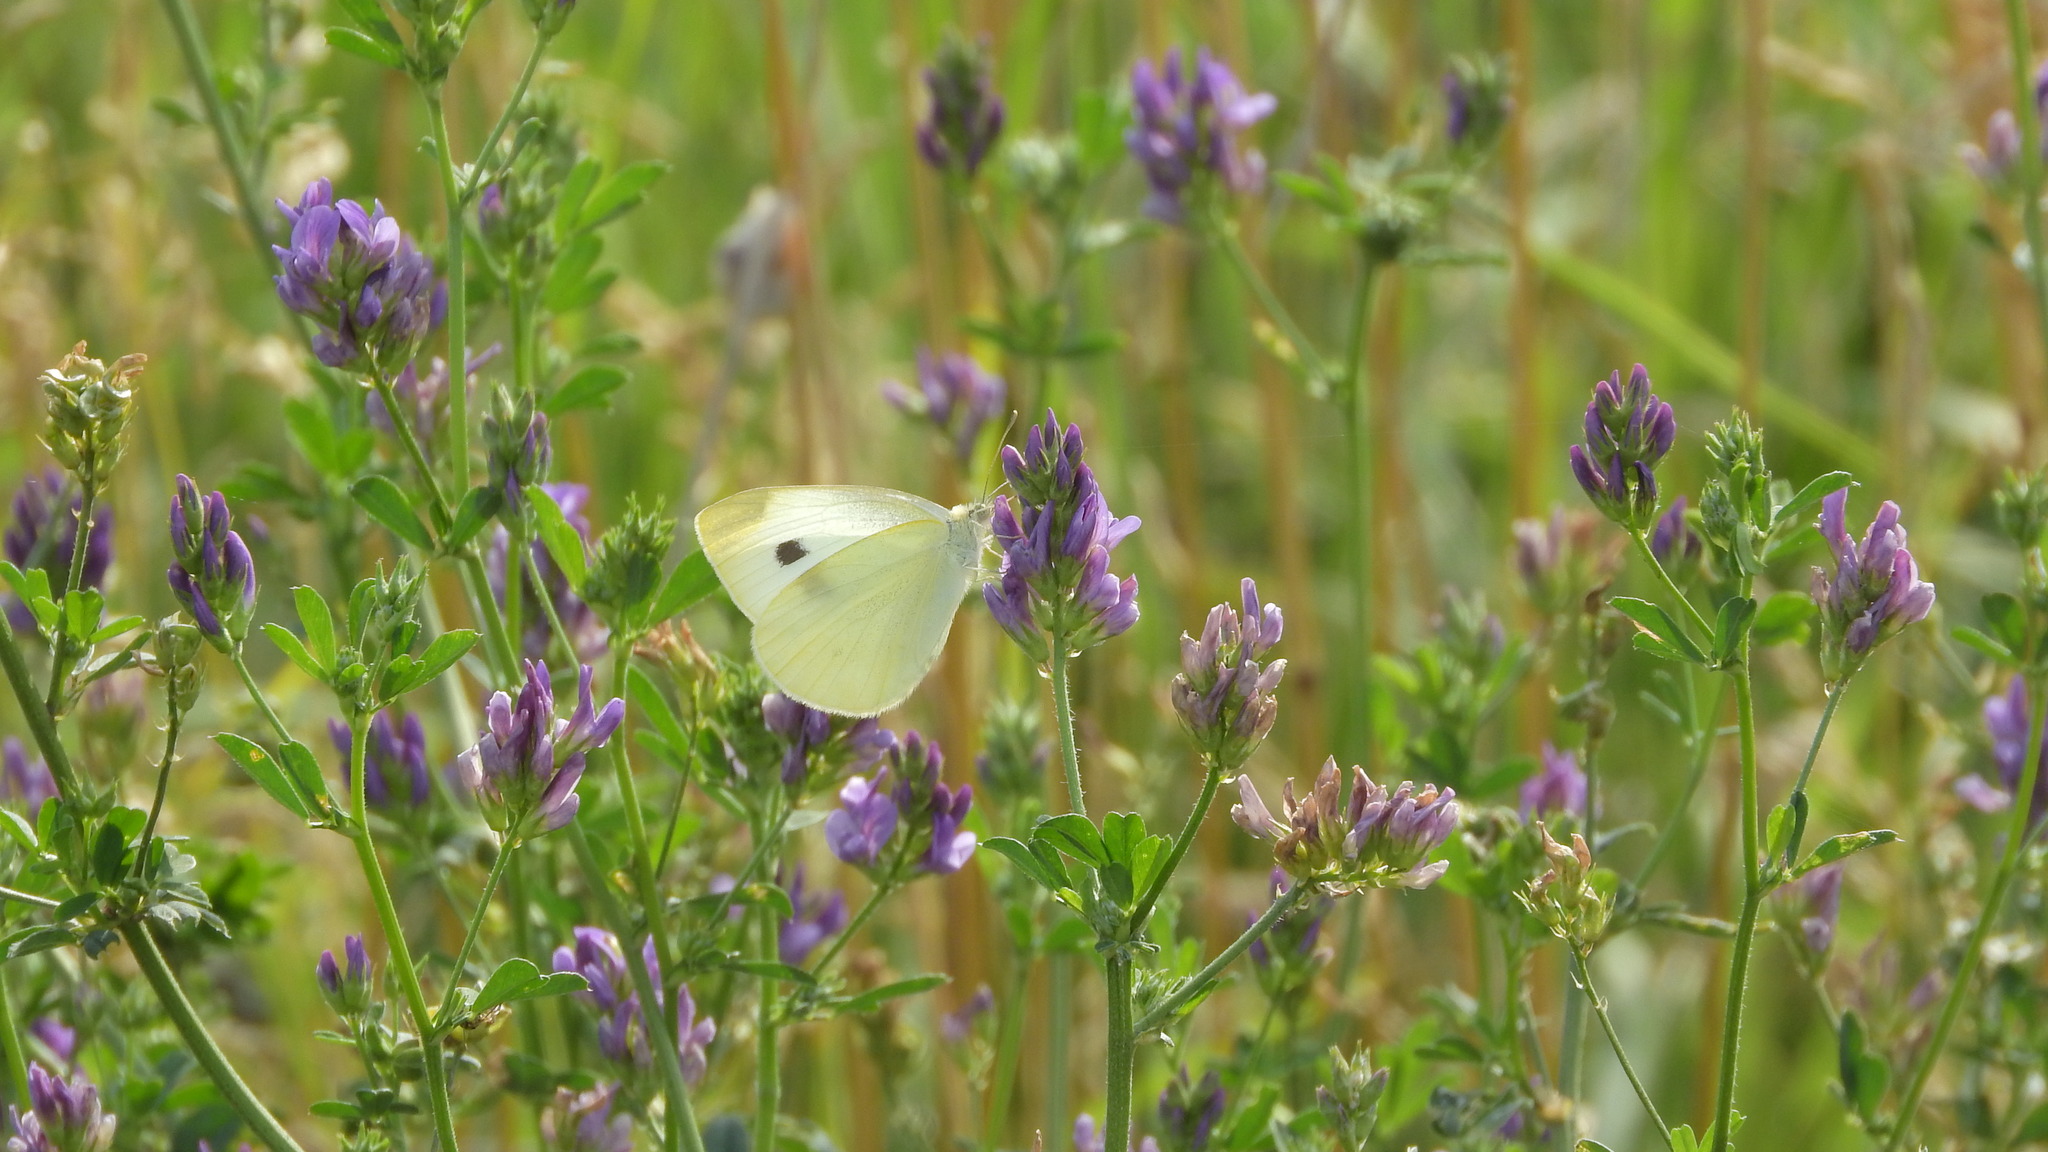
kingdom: Animalia
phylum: Arthropoda
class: Insecta
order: Lepidoptera
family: Pieridae
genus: Pieris
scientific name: Pieris rapae
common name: Small white
